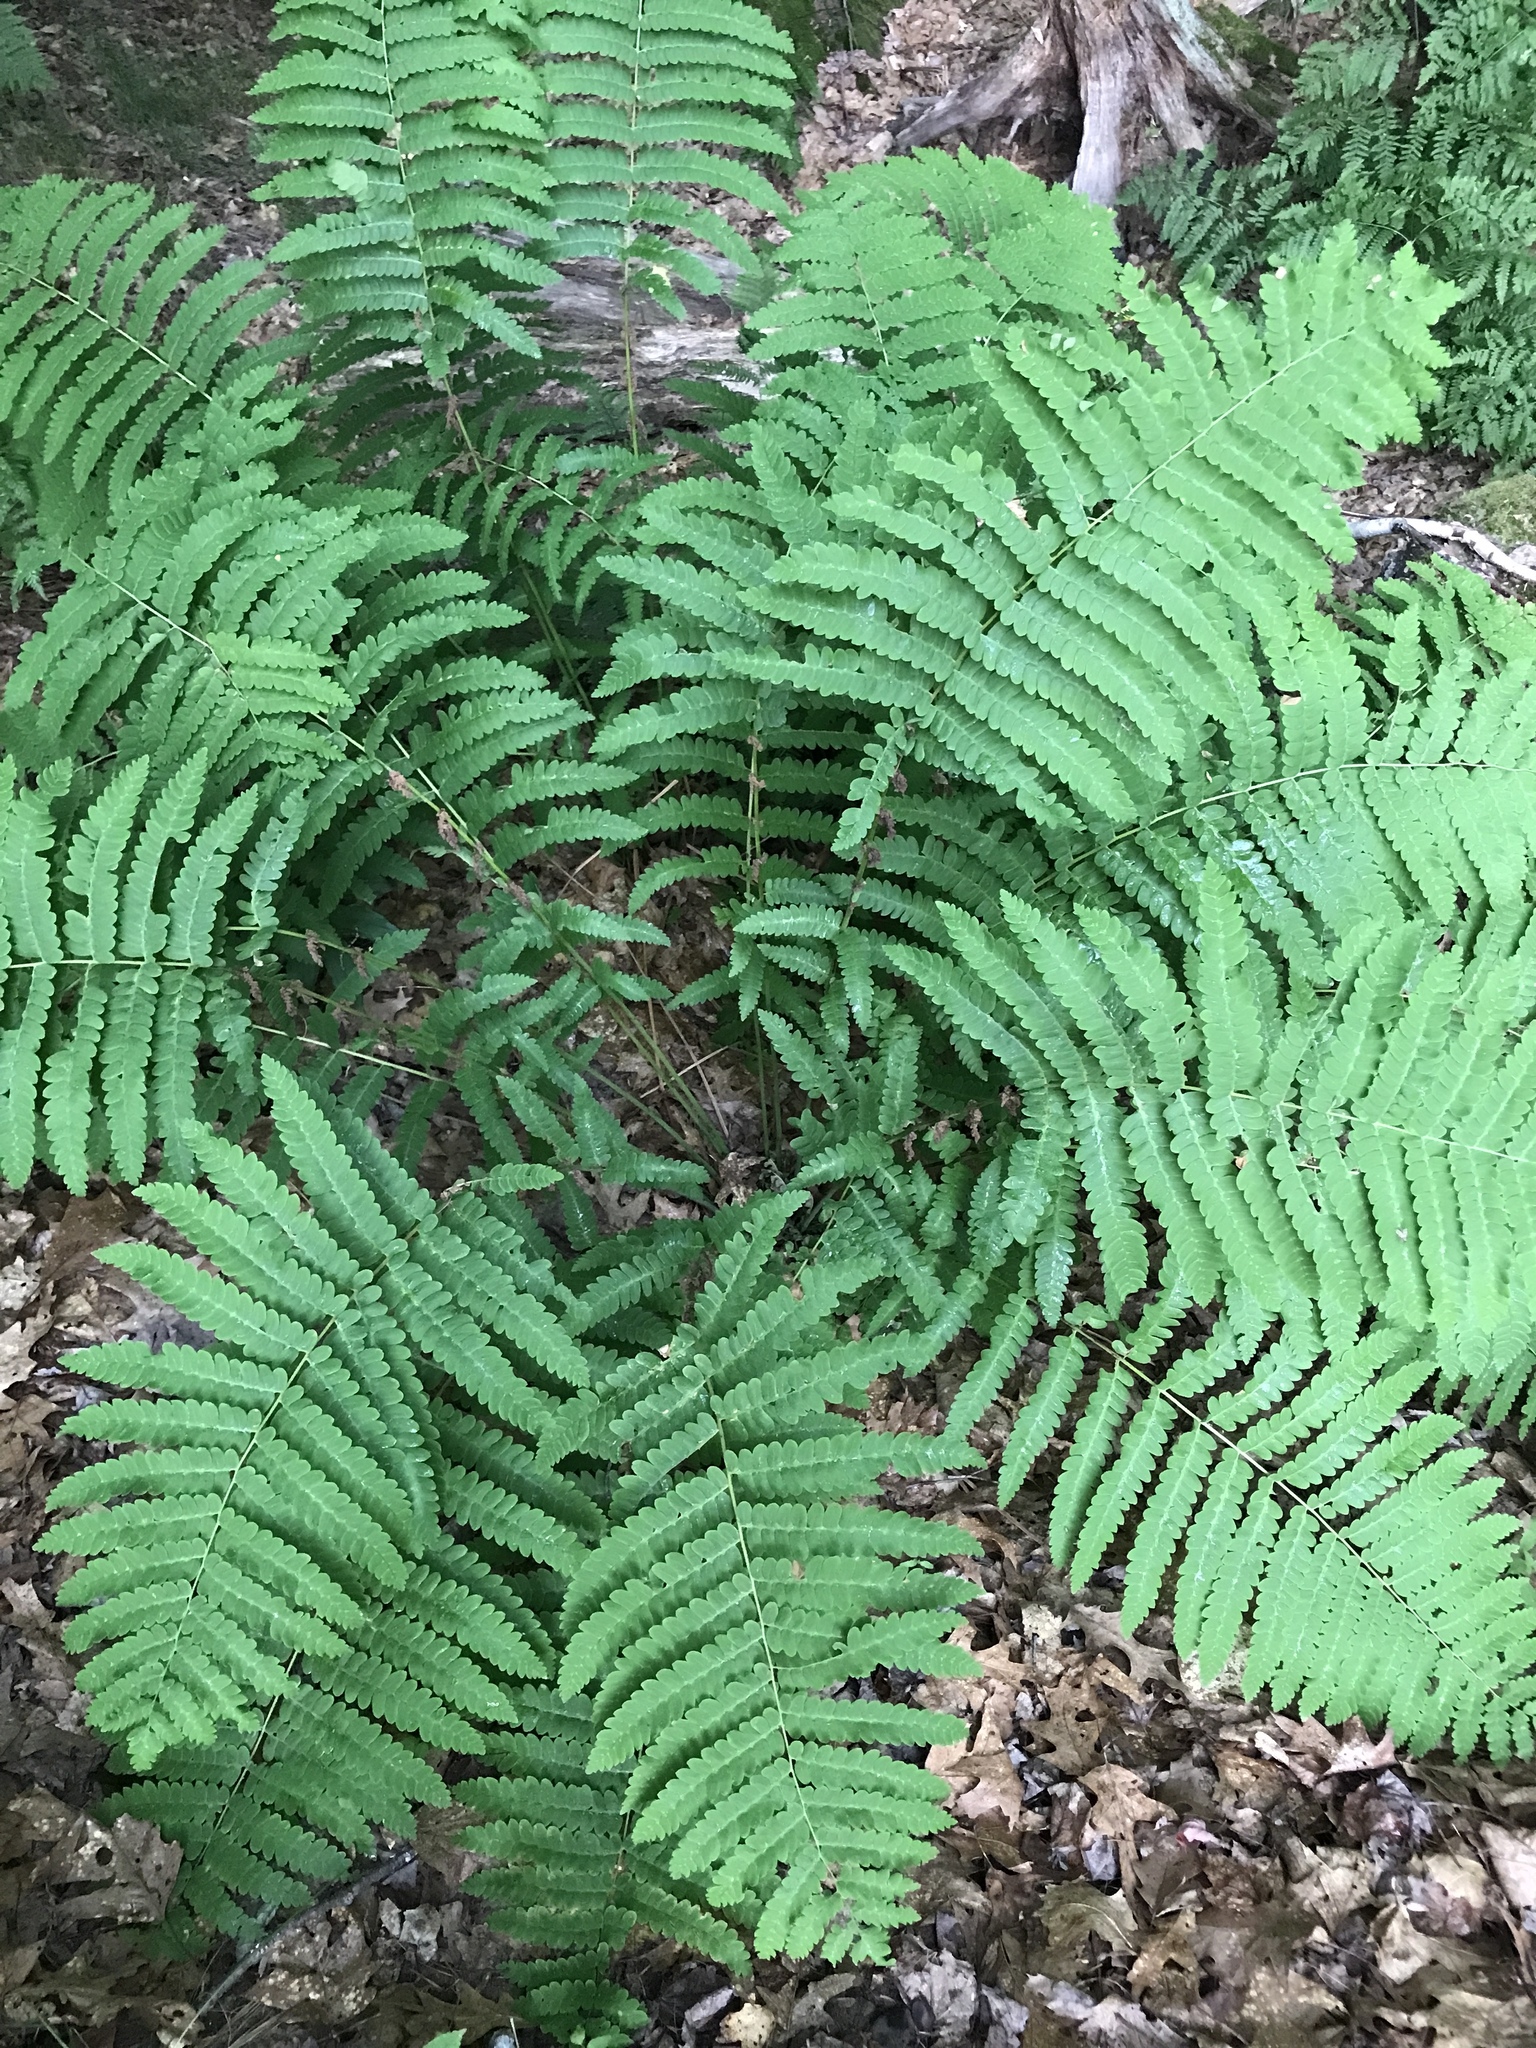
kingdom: Plantae
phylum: Tracheophyta
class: Polypodiopsida
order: Osmundales
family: Osmundaceae
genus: Claytosmunda
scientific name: Claytosmunda claytoniana
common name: Clayton's fern
